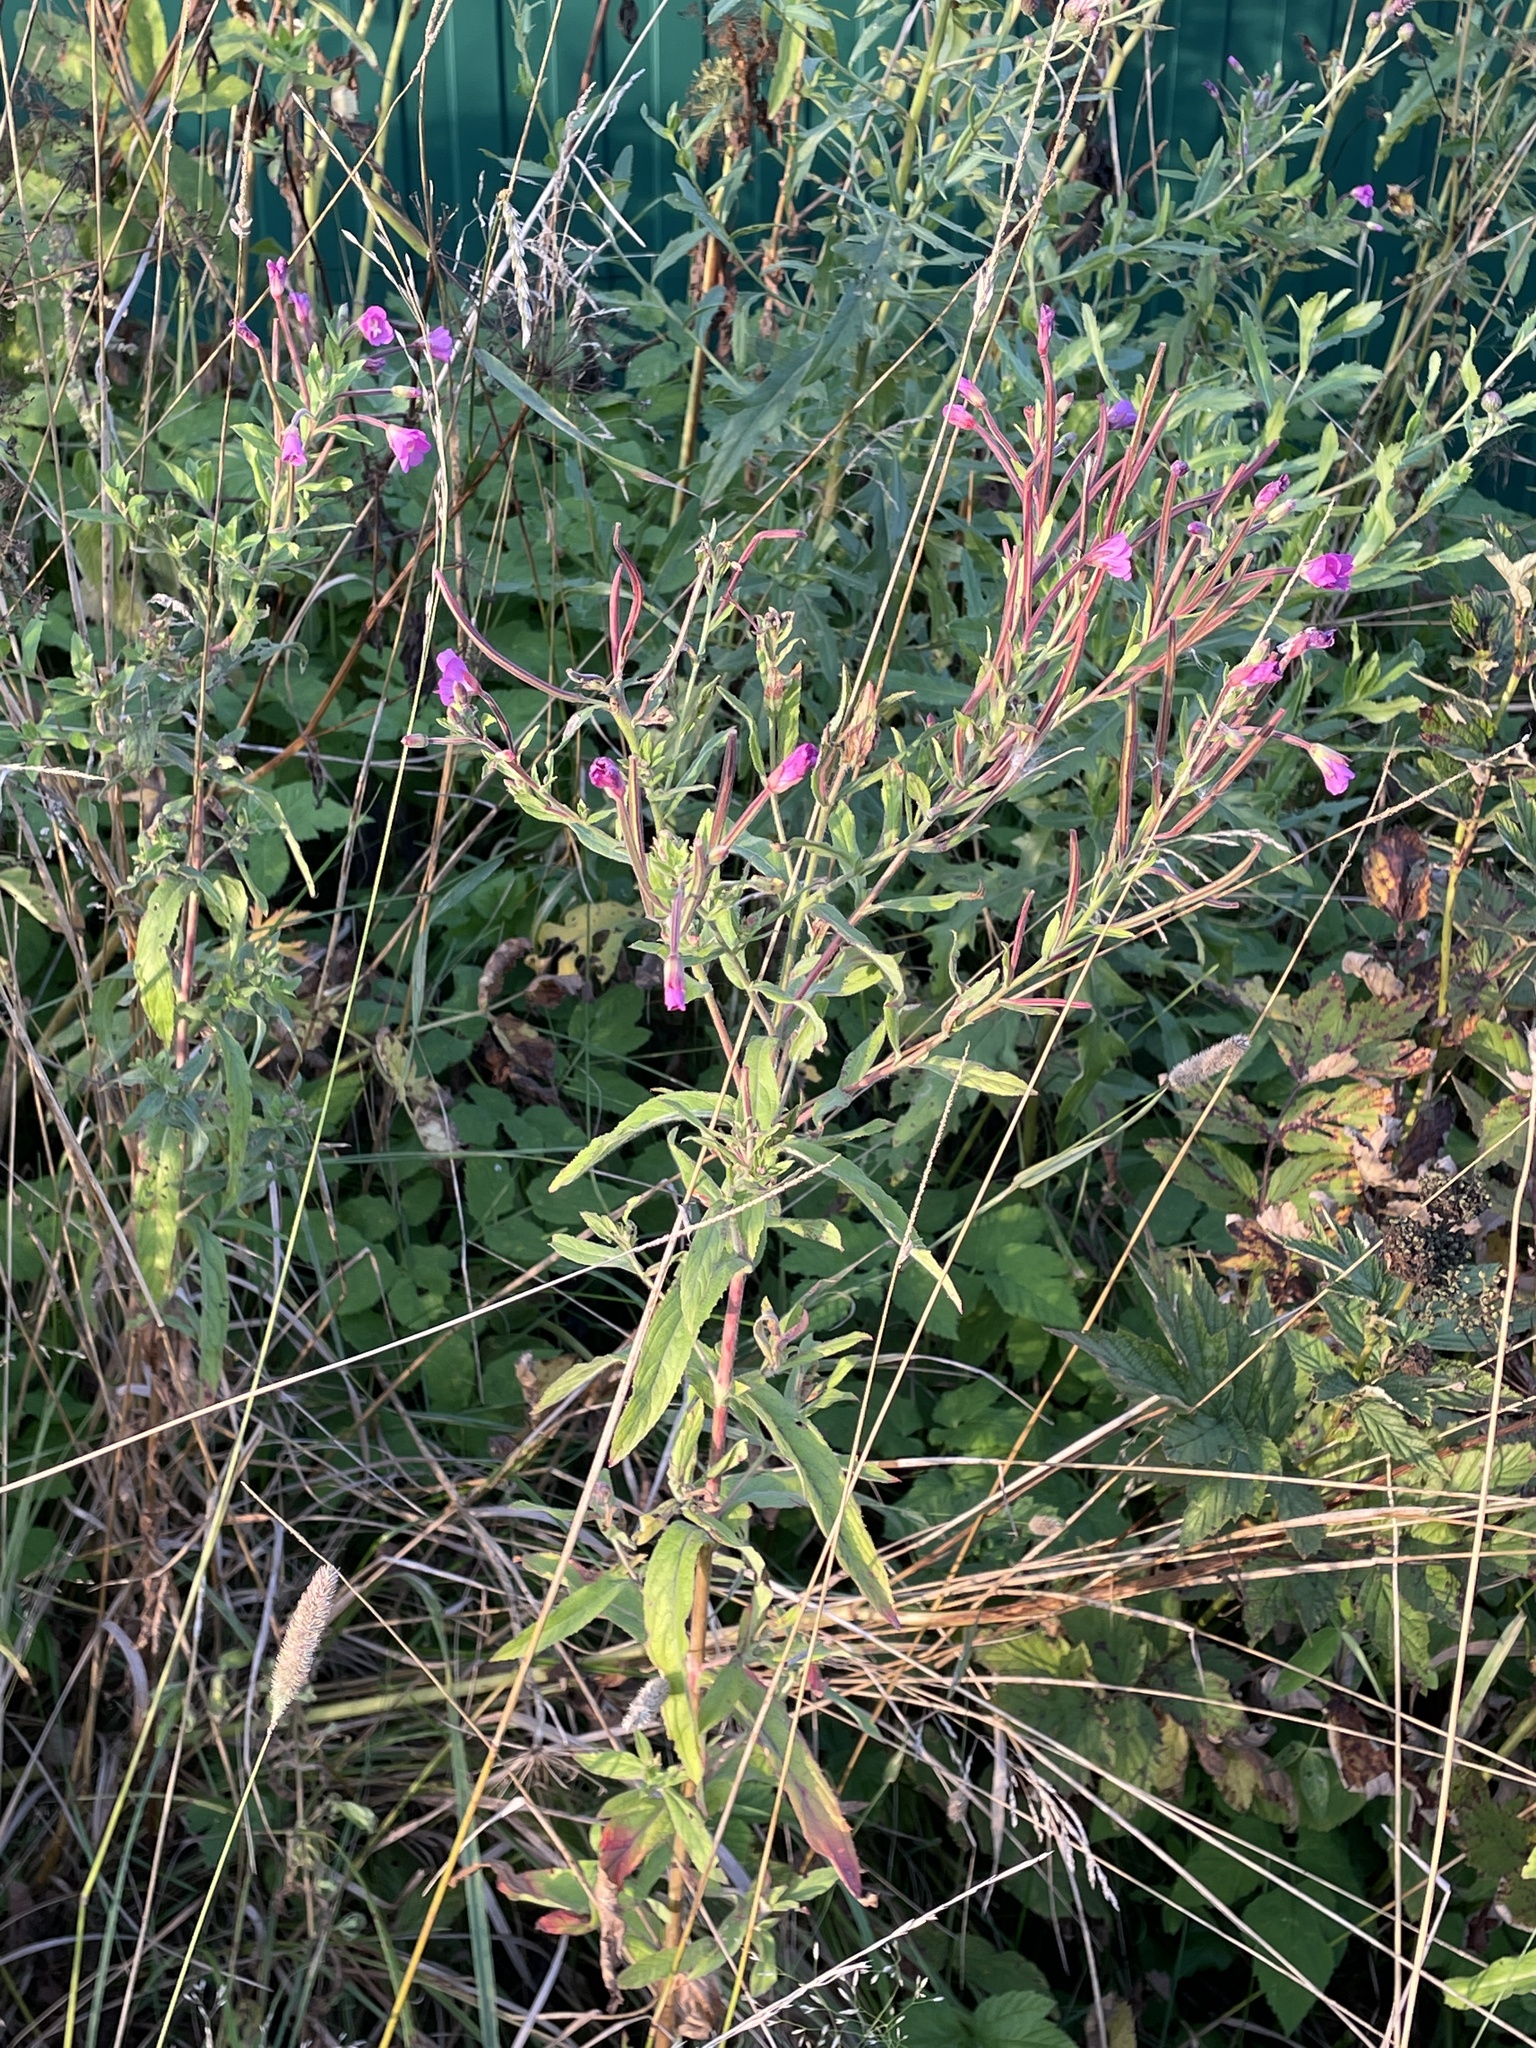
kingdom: Plantae
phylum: Tracheophyta
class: Magnoliopsida
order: Myrtales
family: Onagraceae
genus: Epilobium
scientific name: Epilobium hirsutum
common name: Great willowherb
